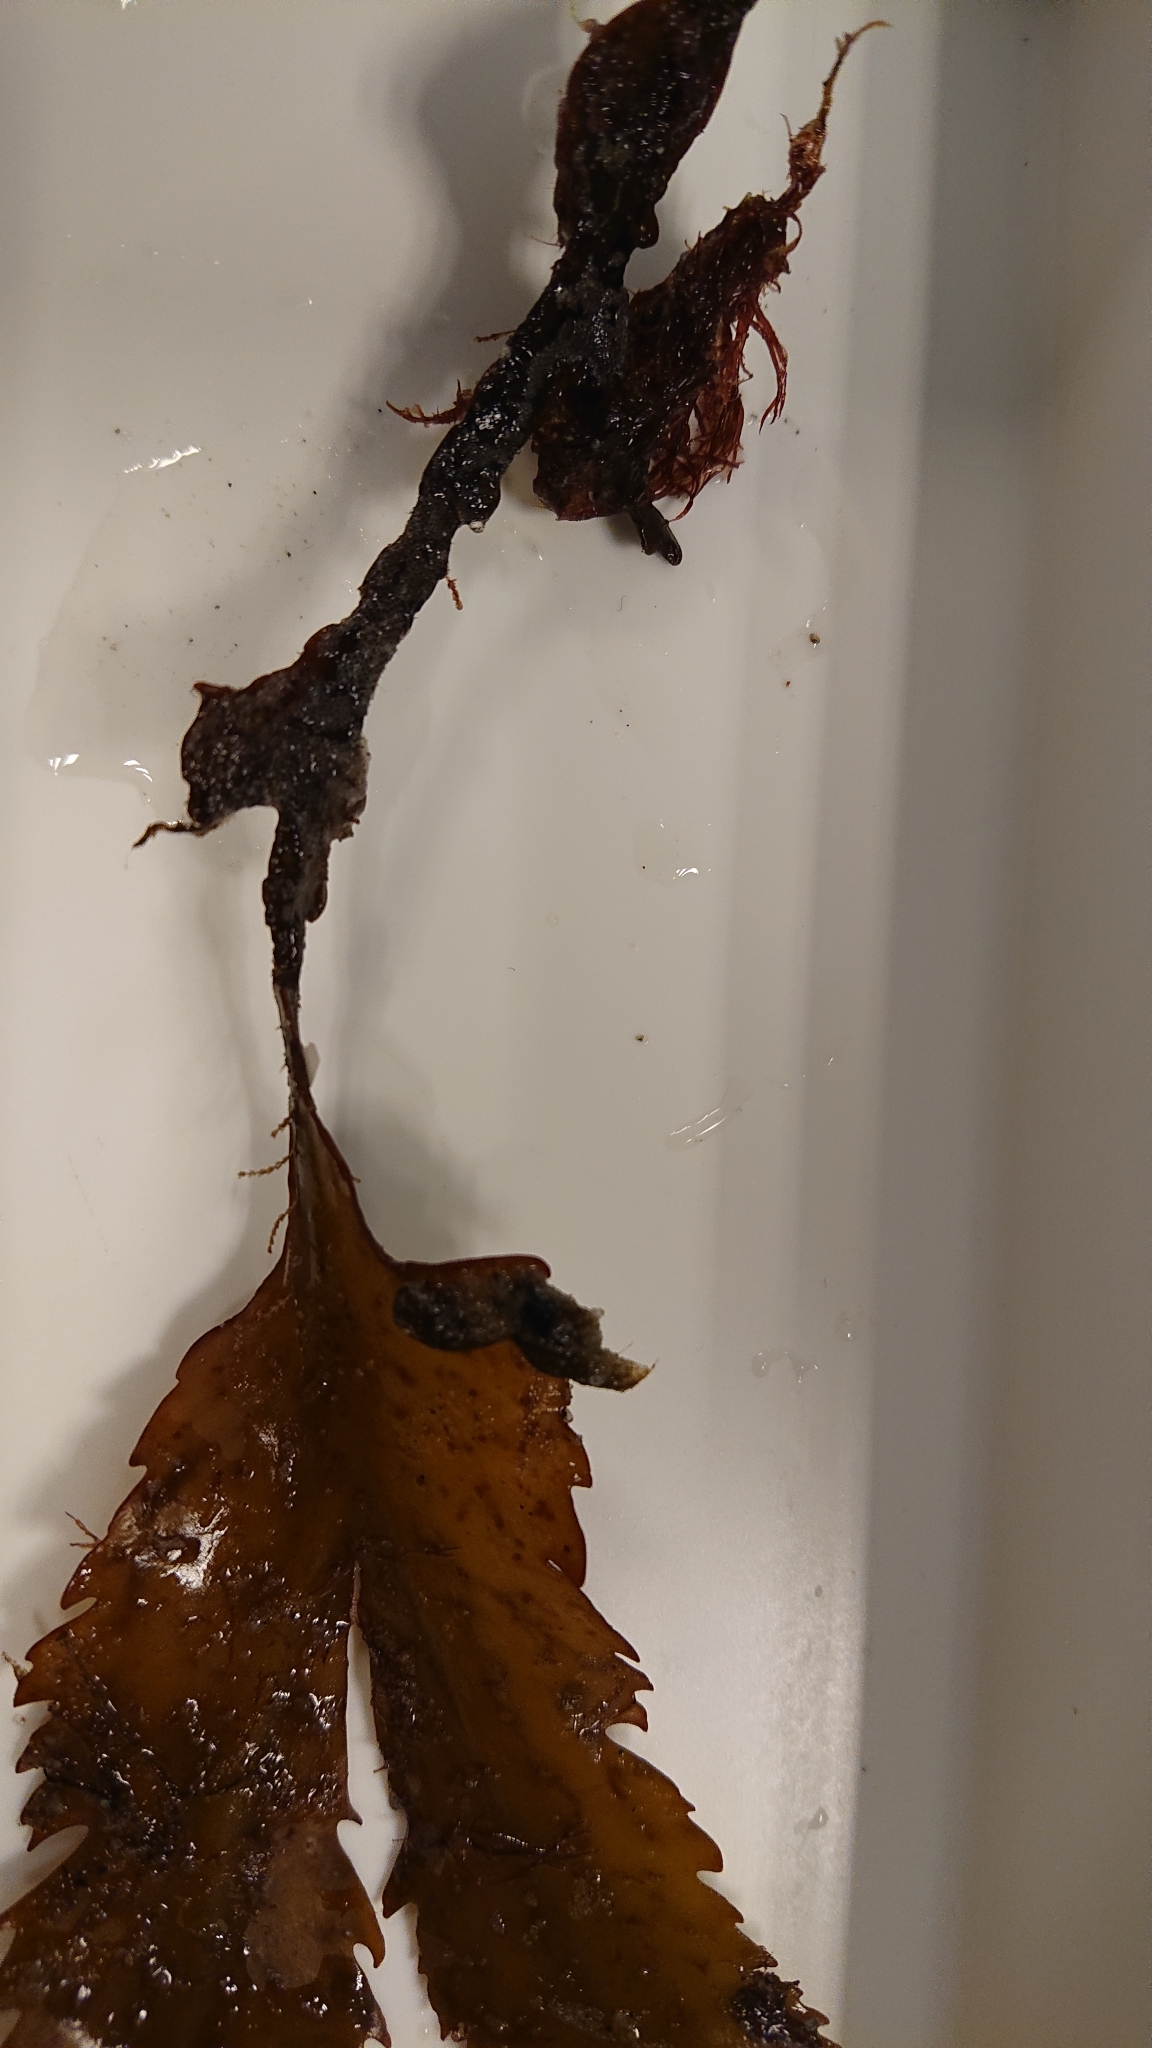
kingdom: Chromista
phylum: Ochrophyta
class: Phaeophyceae
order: Fucales
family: Fucaceae
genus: Fucus
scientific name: Fucus serratus
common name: Toothed wrack
